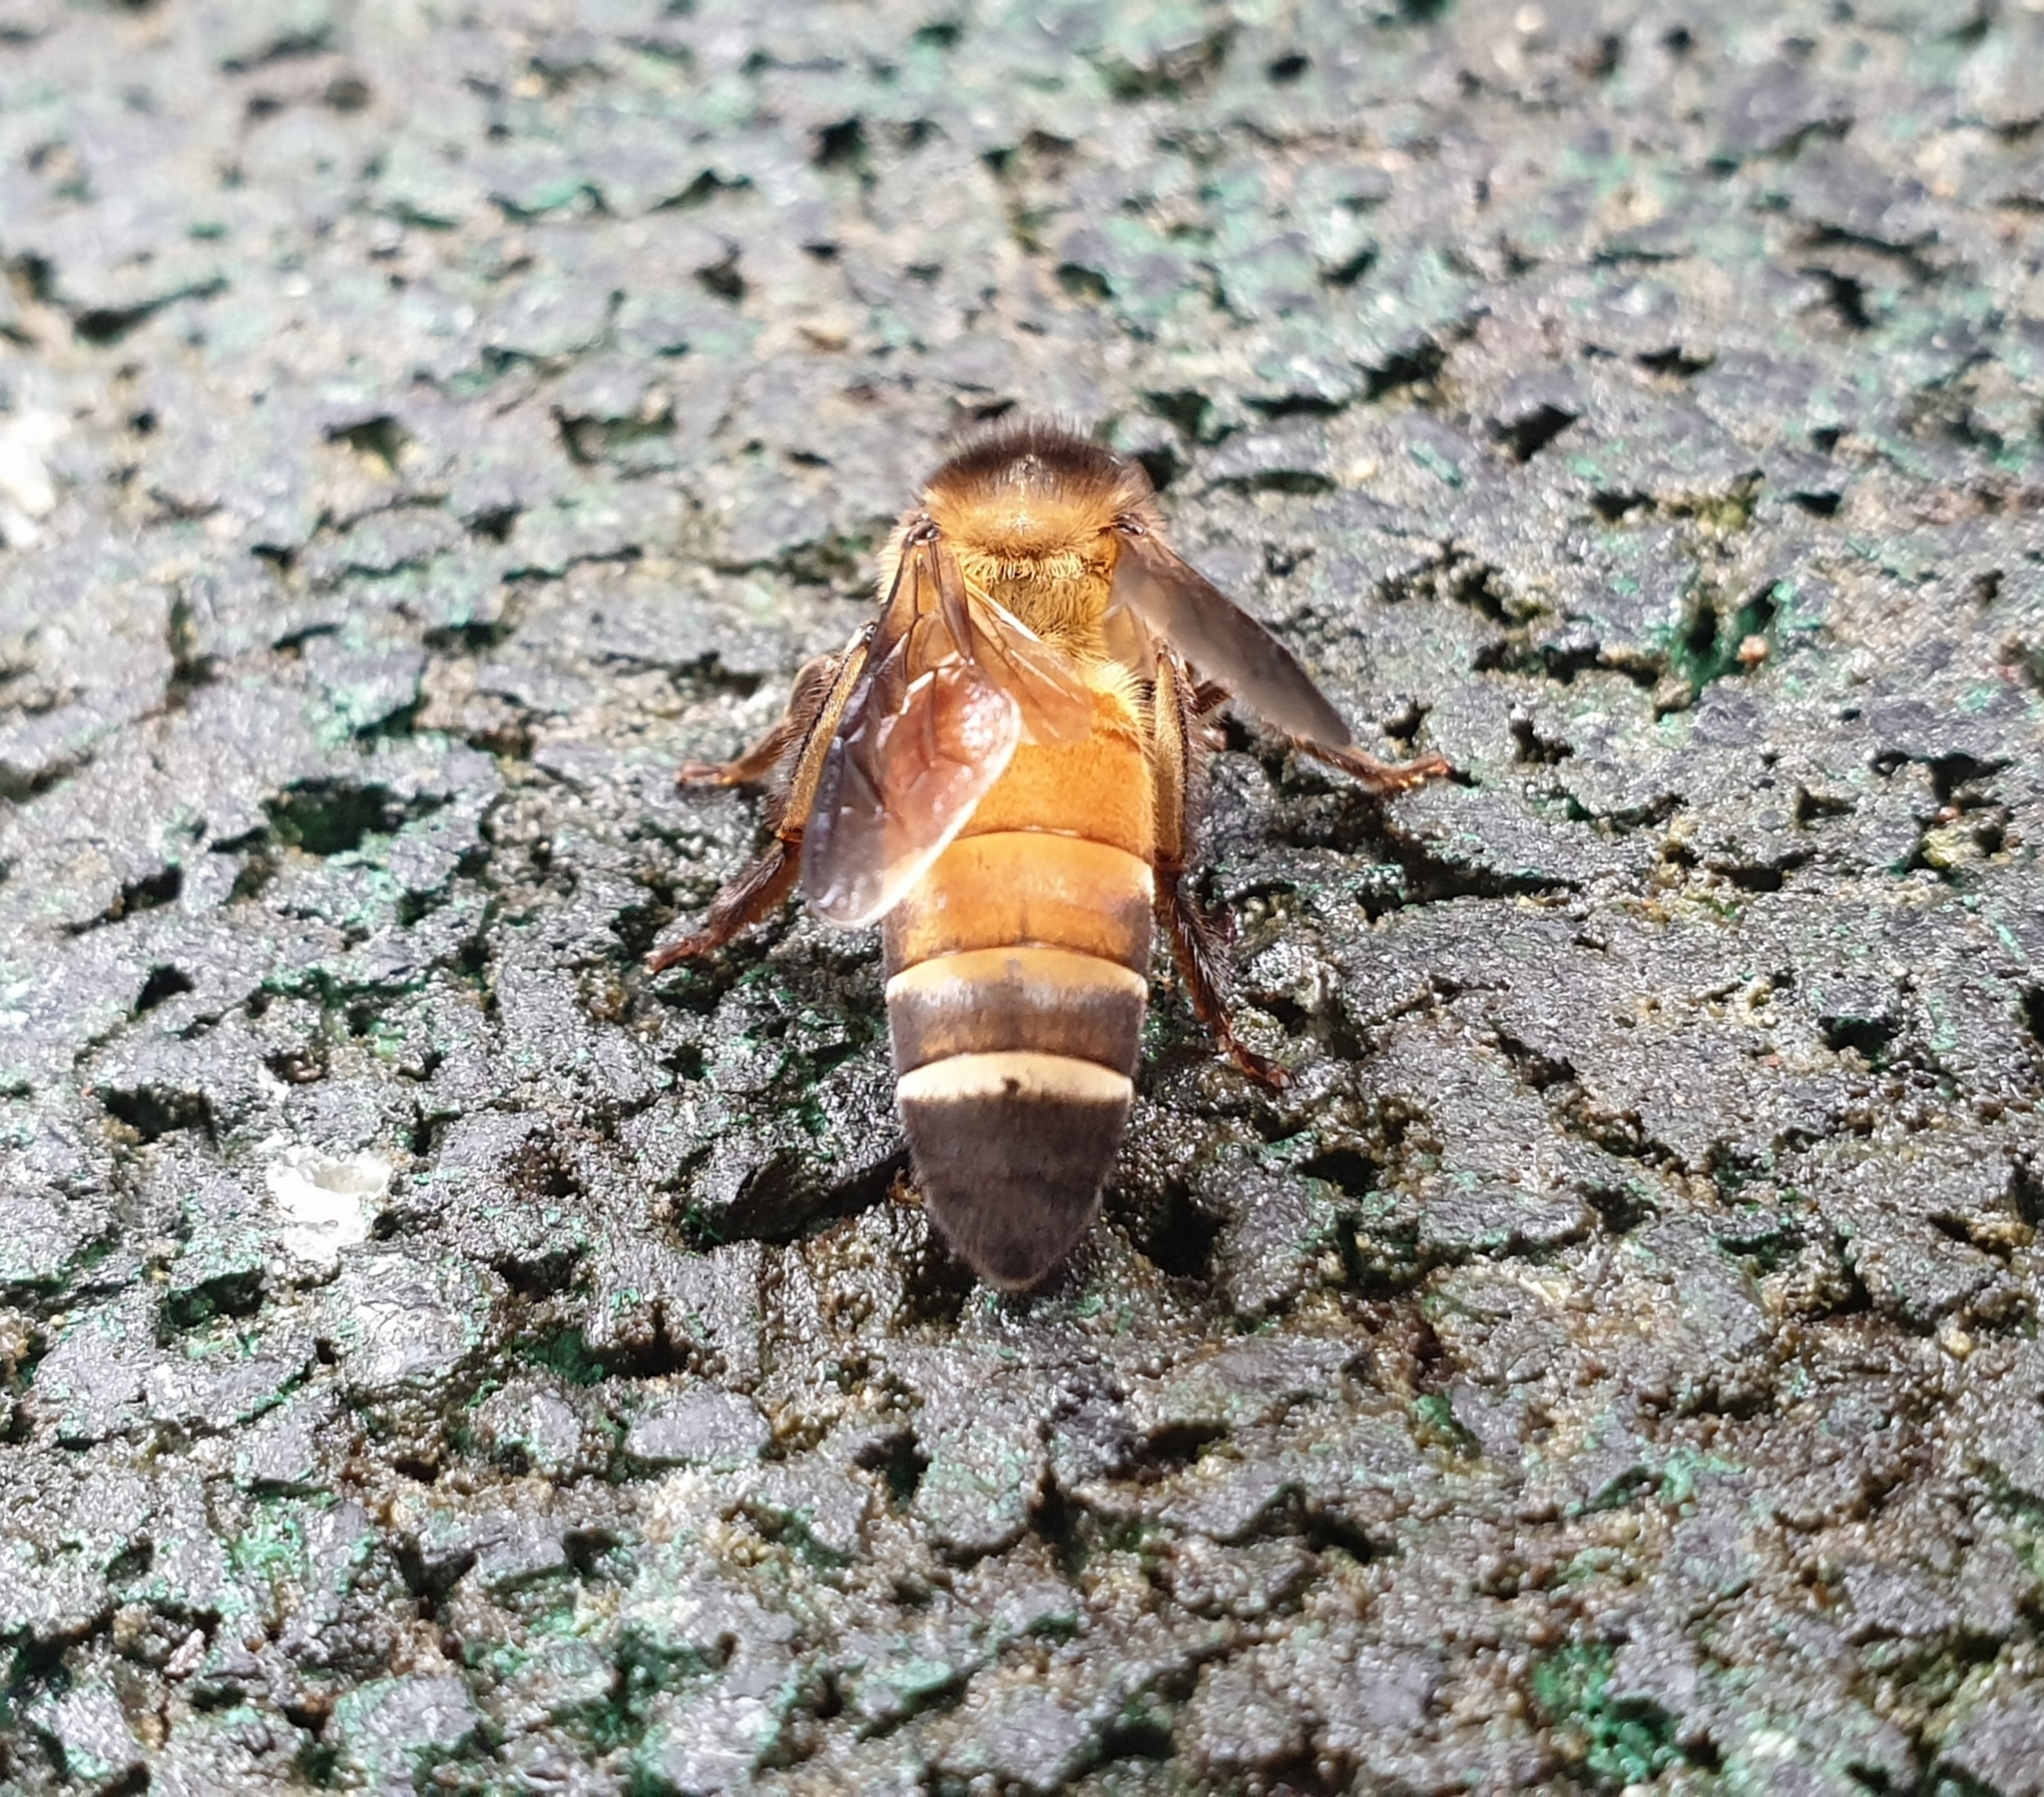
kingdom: Animalia
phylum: Arthropoda
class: Insecta
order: Hymenoptera
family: Apidae
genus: Apis
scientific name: Apis dorsata
